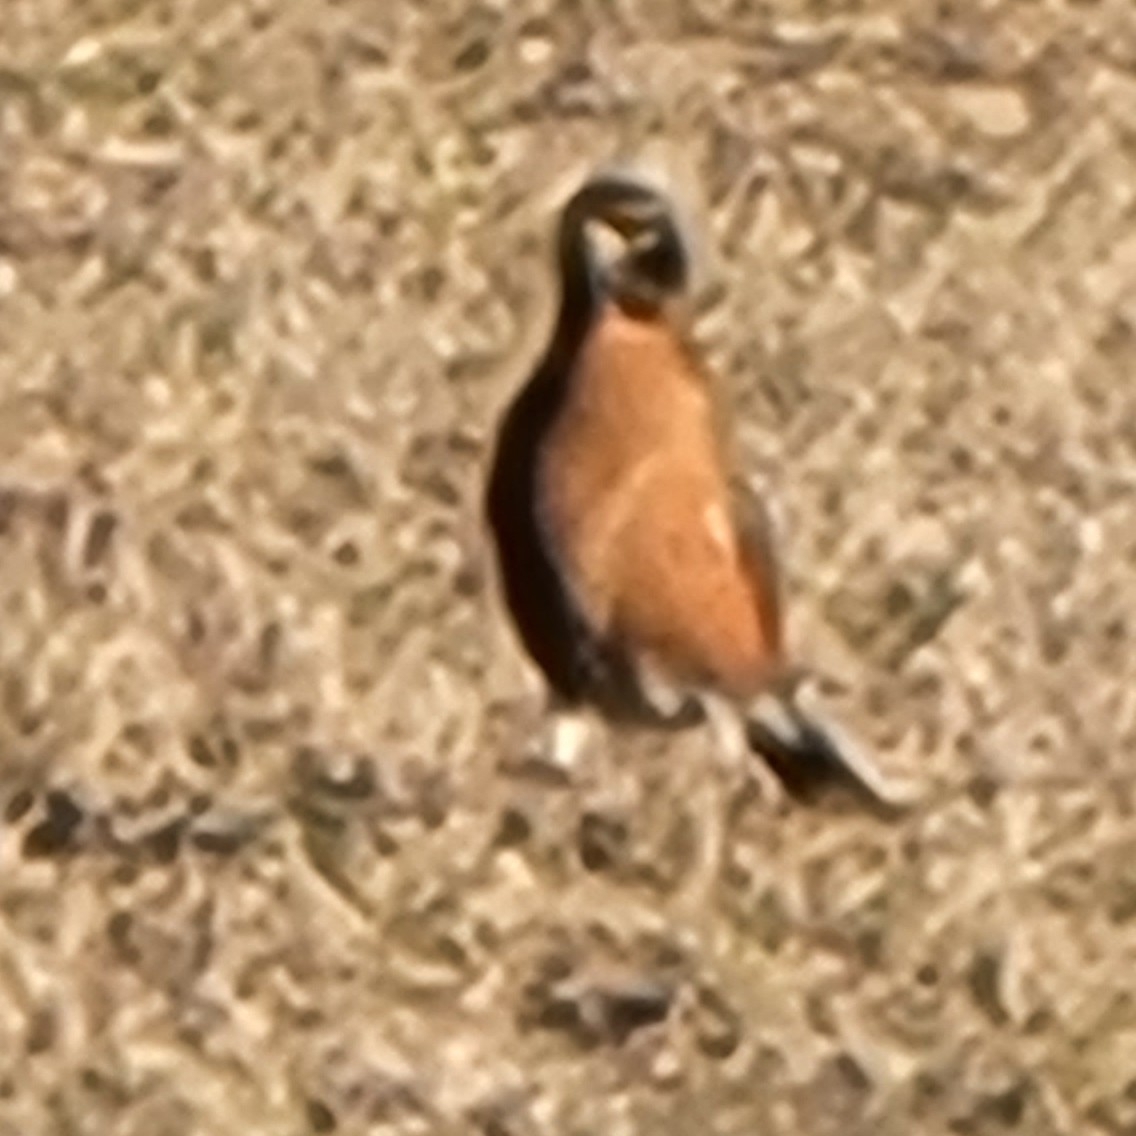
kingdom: Animalia
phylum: Chordata
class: Aves
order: Passeriformes
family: Turdidae
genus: Turdus
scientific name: Turdus migratorius
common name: American robin
